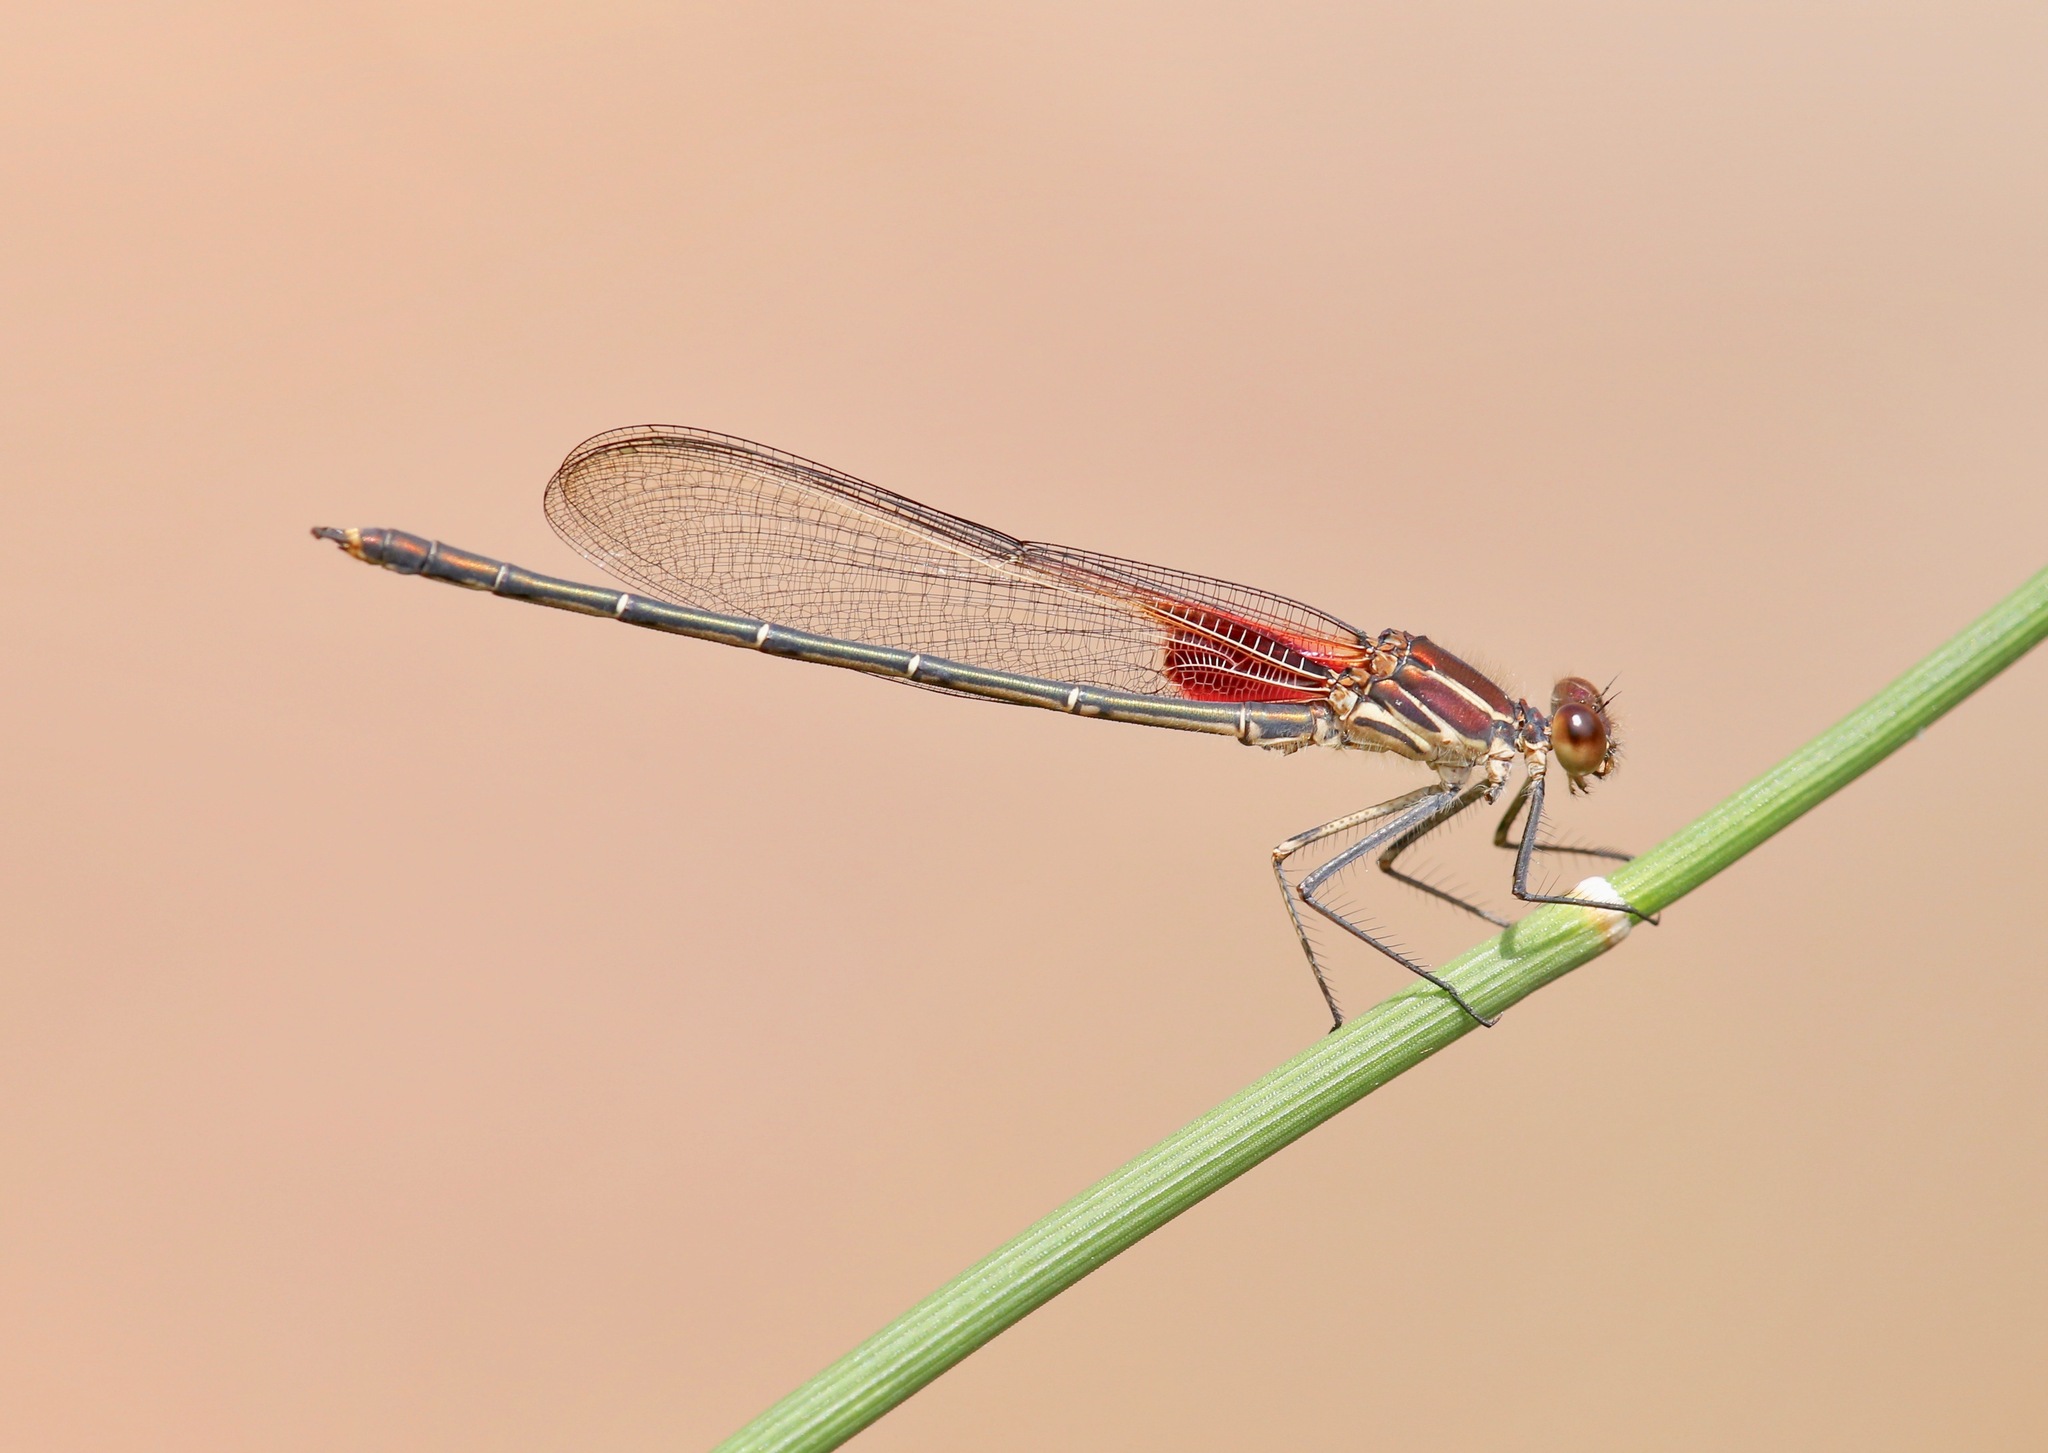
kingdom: Animalia
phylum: Arthropoda
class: Insecta
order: Odonata
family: Calopterygidae
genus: Hetaerina
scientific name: Hetaerina americana
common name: American rubyspot
